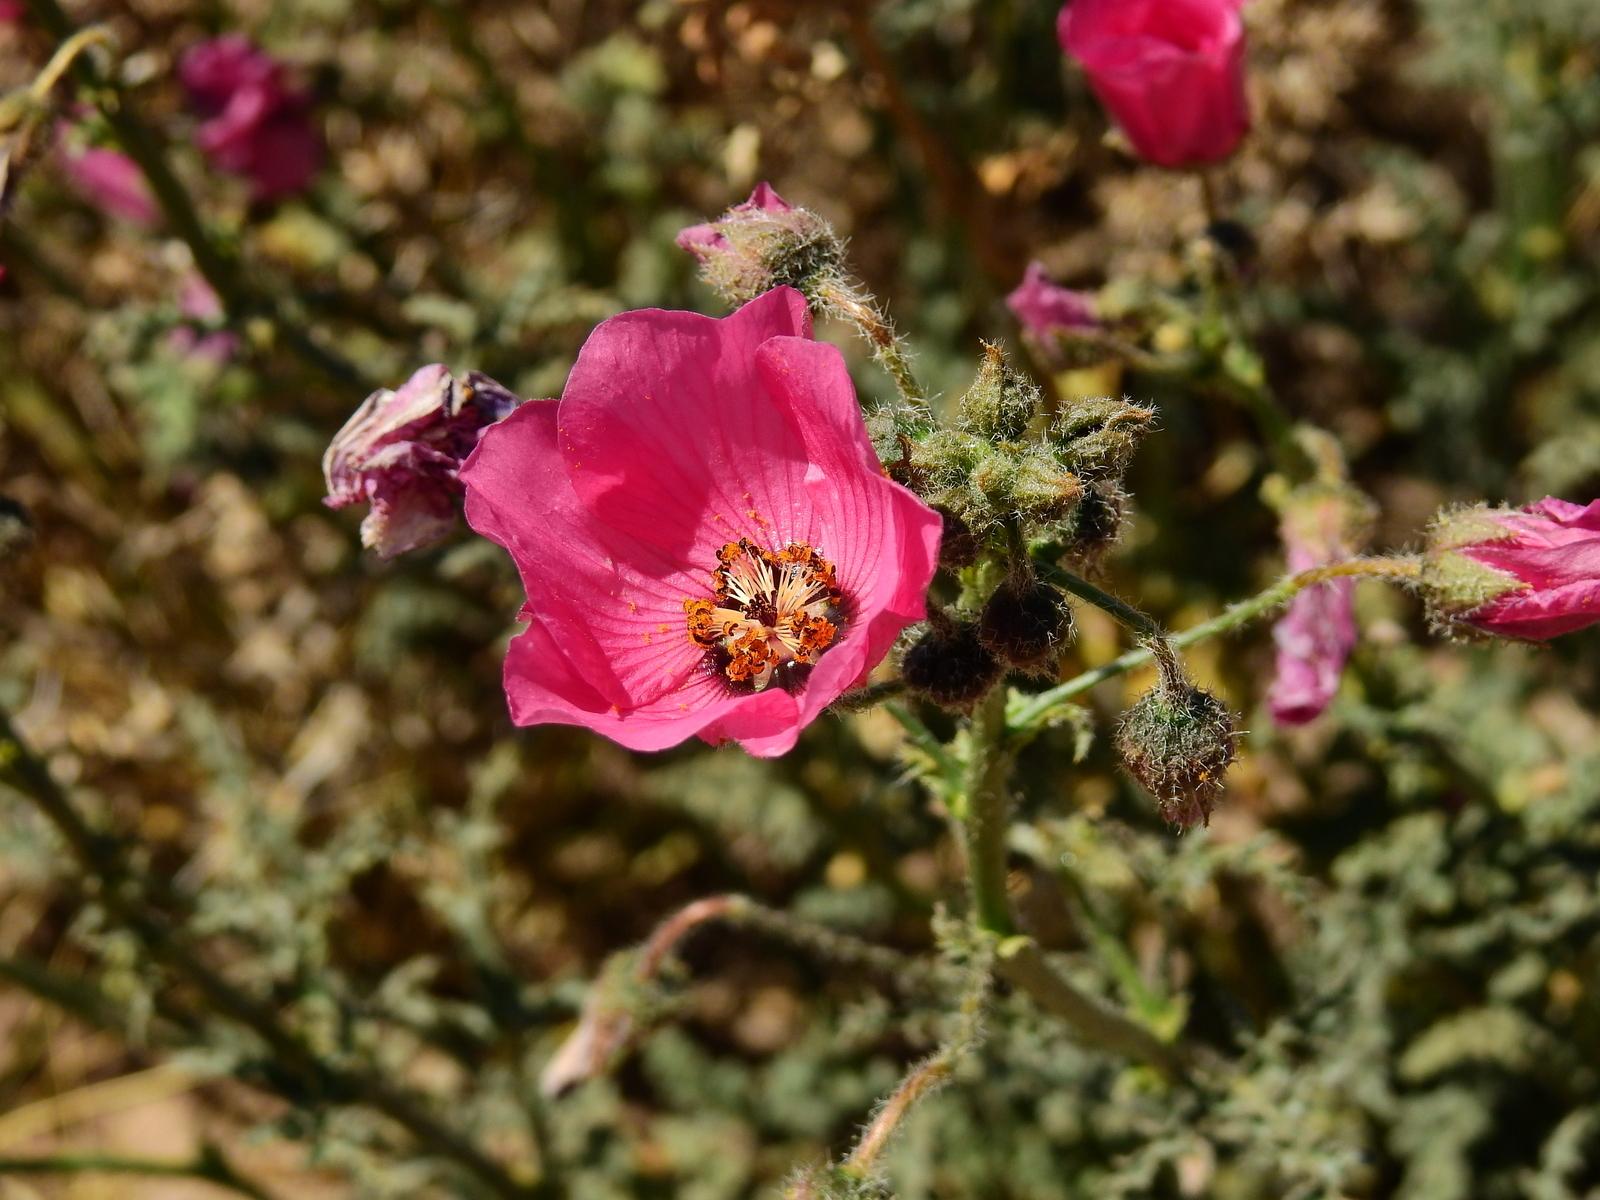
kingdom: Plantae
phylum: Tracheophyta
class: Magnoliopsida
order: Malvales
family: Malvaceae
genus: Lecanophora
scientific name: Lecanophora heterophylla
